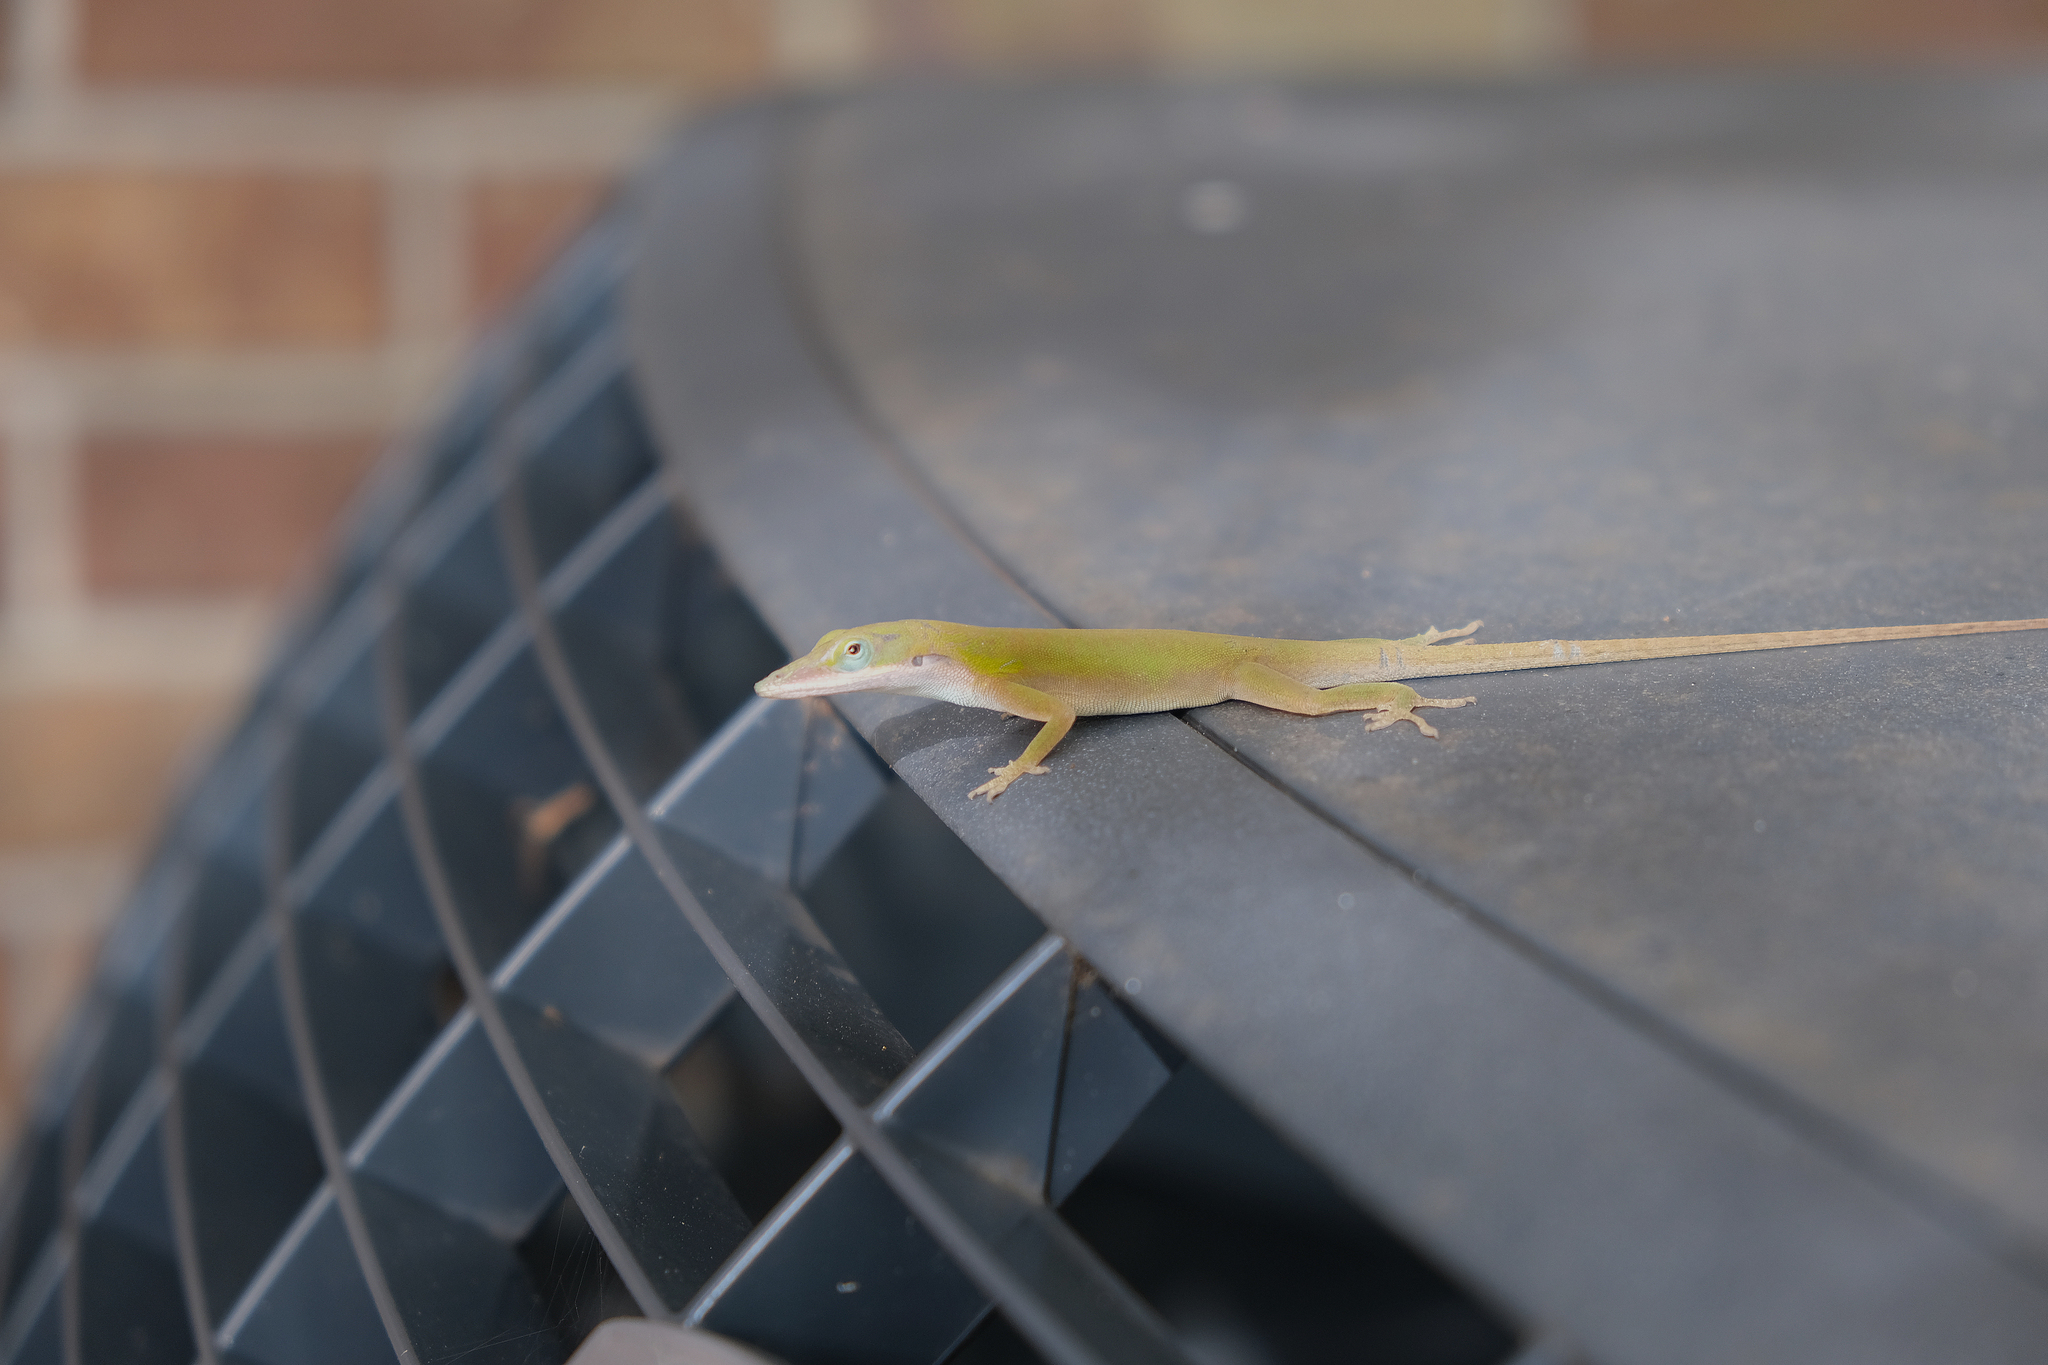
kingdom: Animalia
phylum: Chordata
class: Squamata
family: Dactyloidae
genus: Anolis
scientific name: Anolis allisoni
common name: Allison's anole
